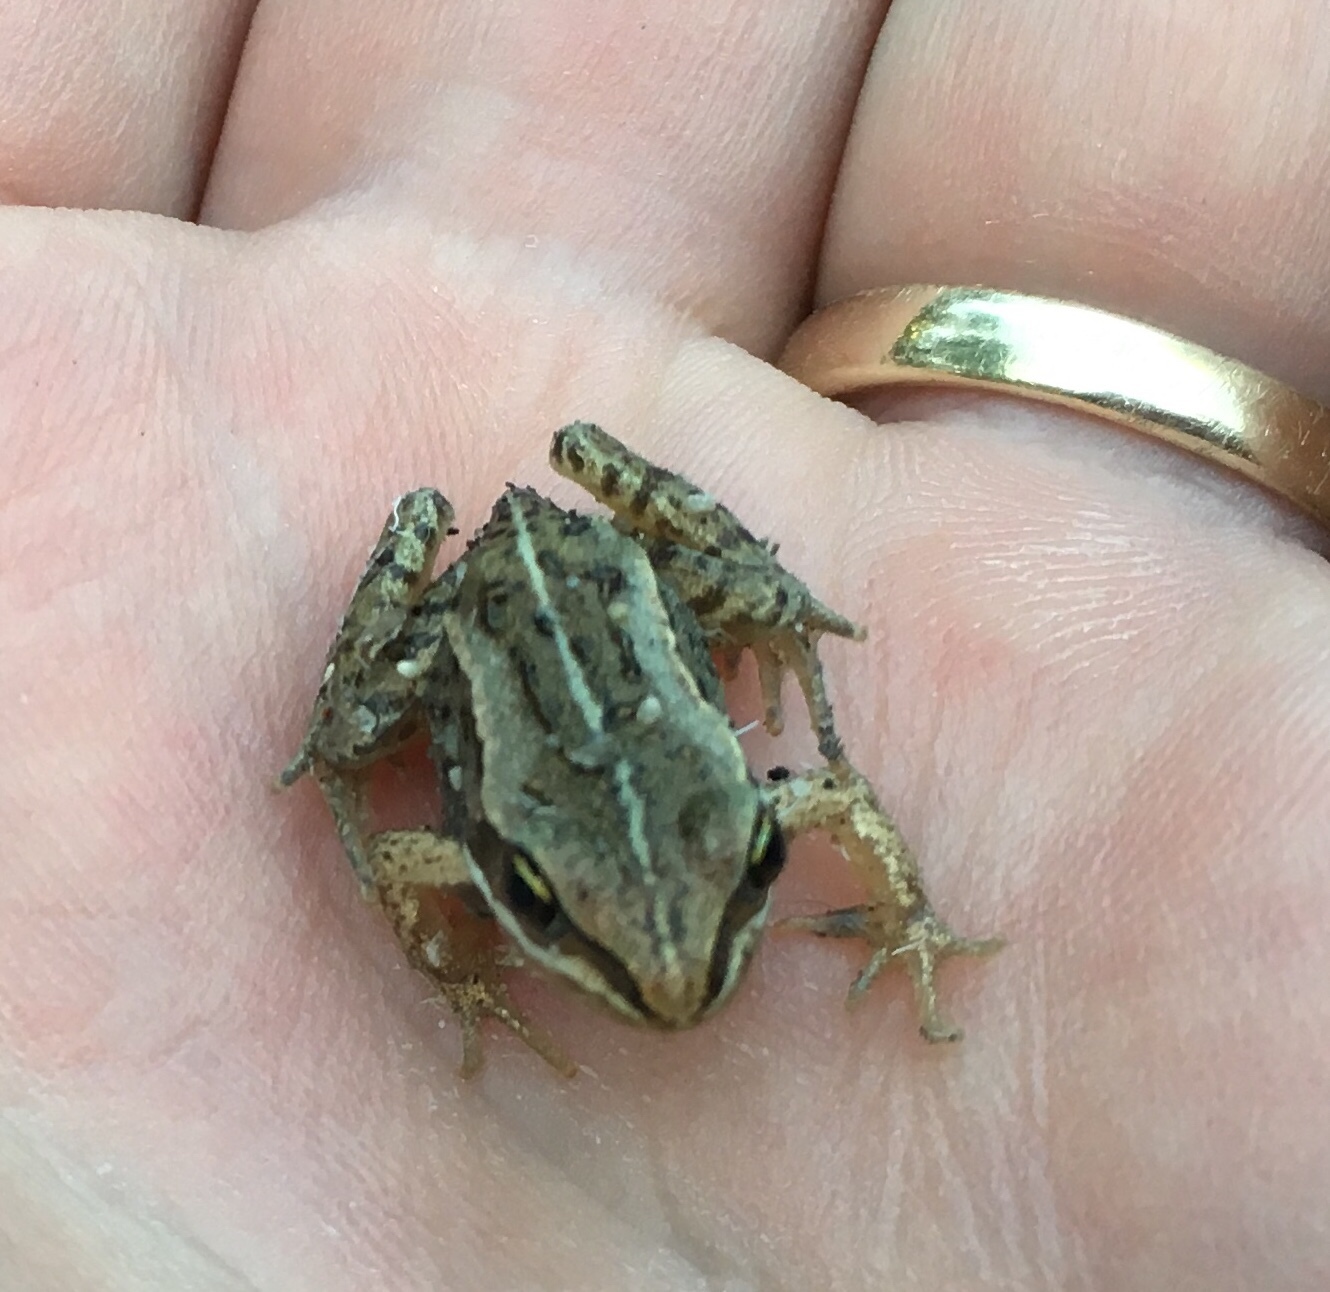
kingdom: Animalia
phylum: Chordata
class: Amphibia
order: Anura
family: Ranidae
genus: Lithobates
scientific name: Lithobates sylvaticus
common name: Wood frog
